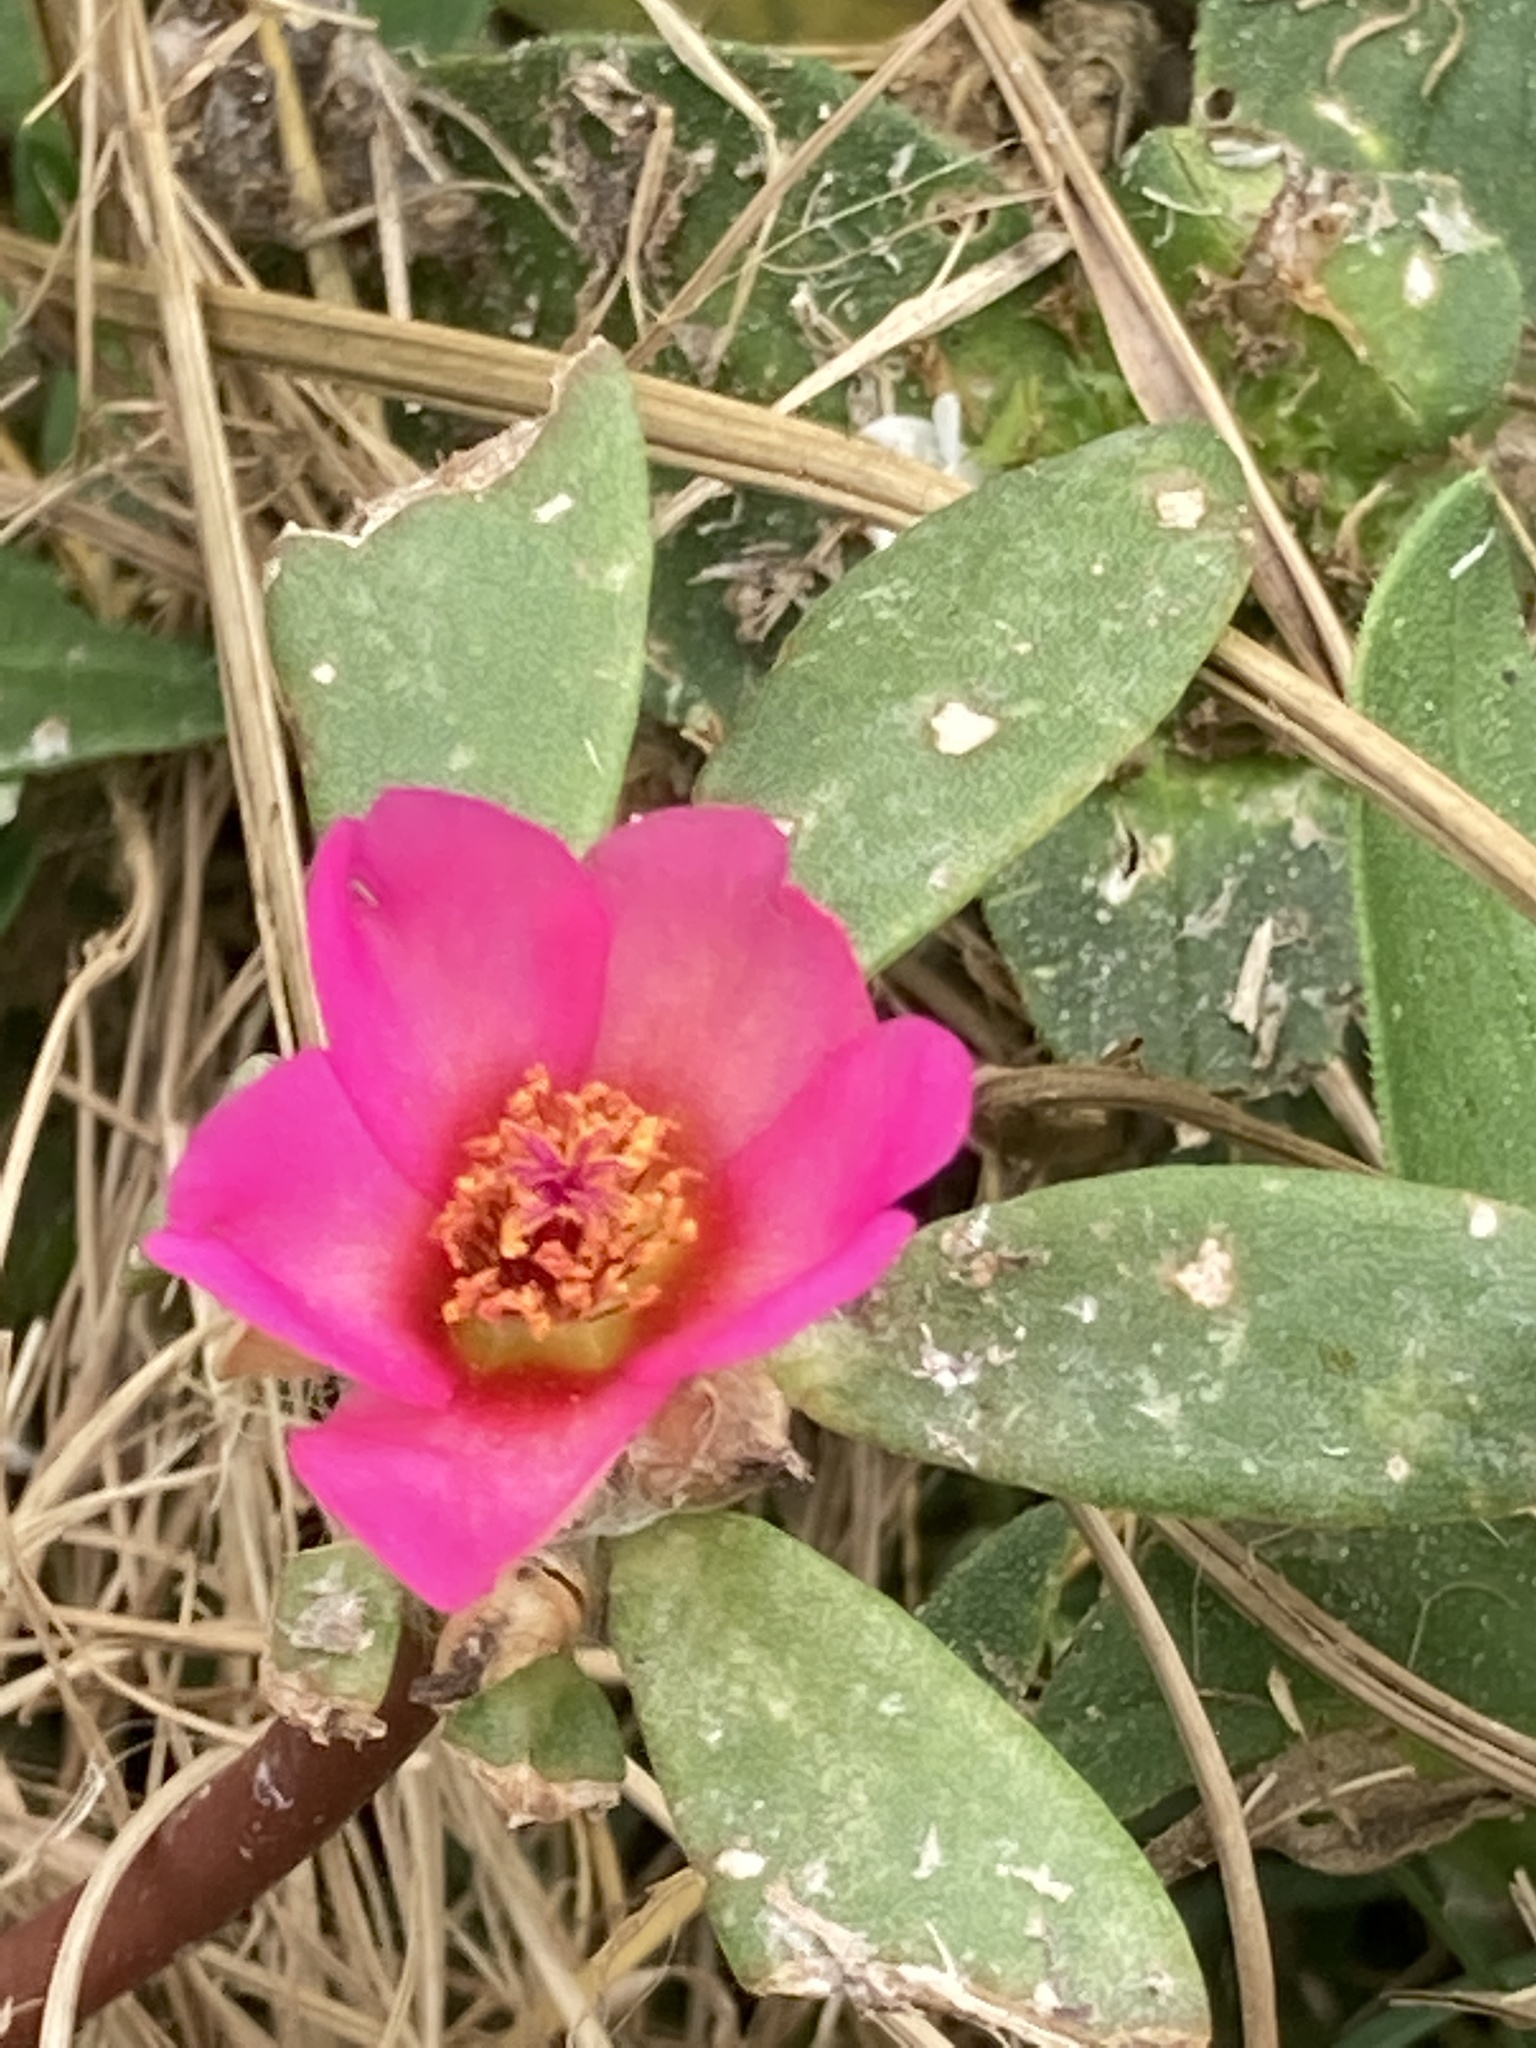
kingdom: Plantae
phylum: Tracheophyta
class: Magnoliopsida
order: Caryophyllales
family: Portulacaceae
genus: Portulaca
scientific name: Portulaca pilosa
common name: Kiss me quick
